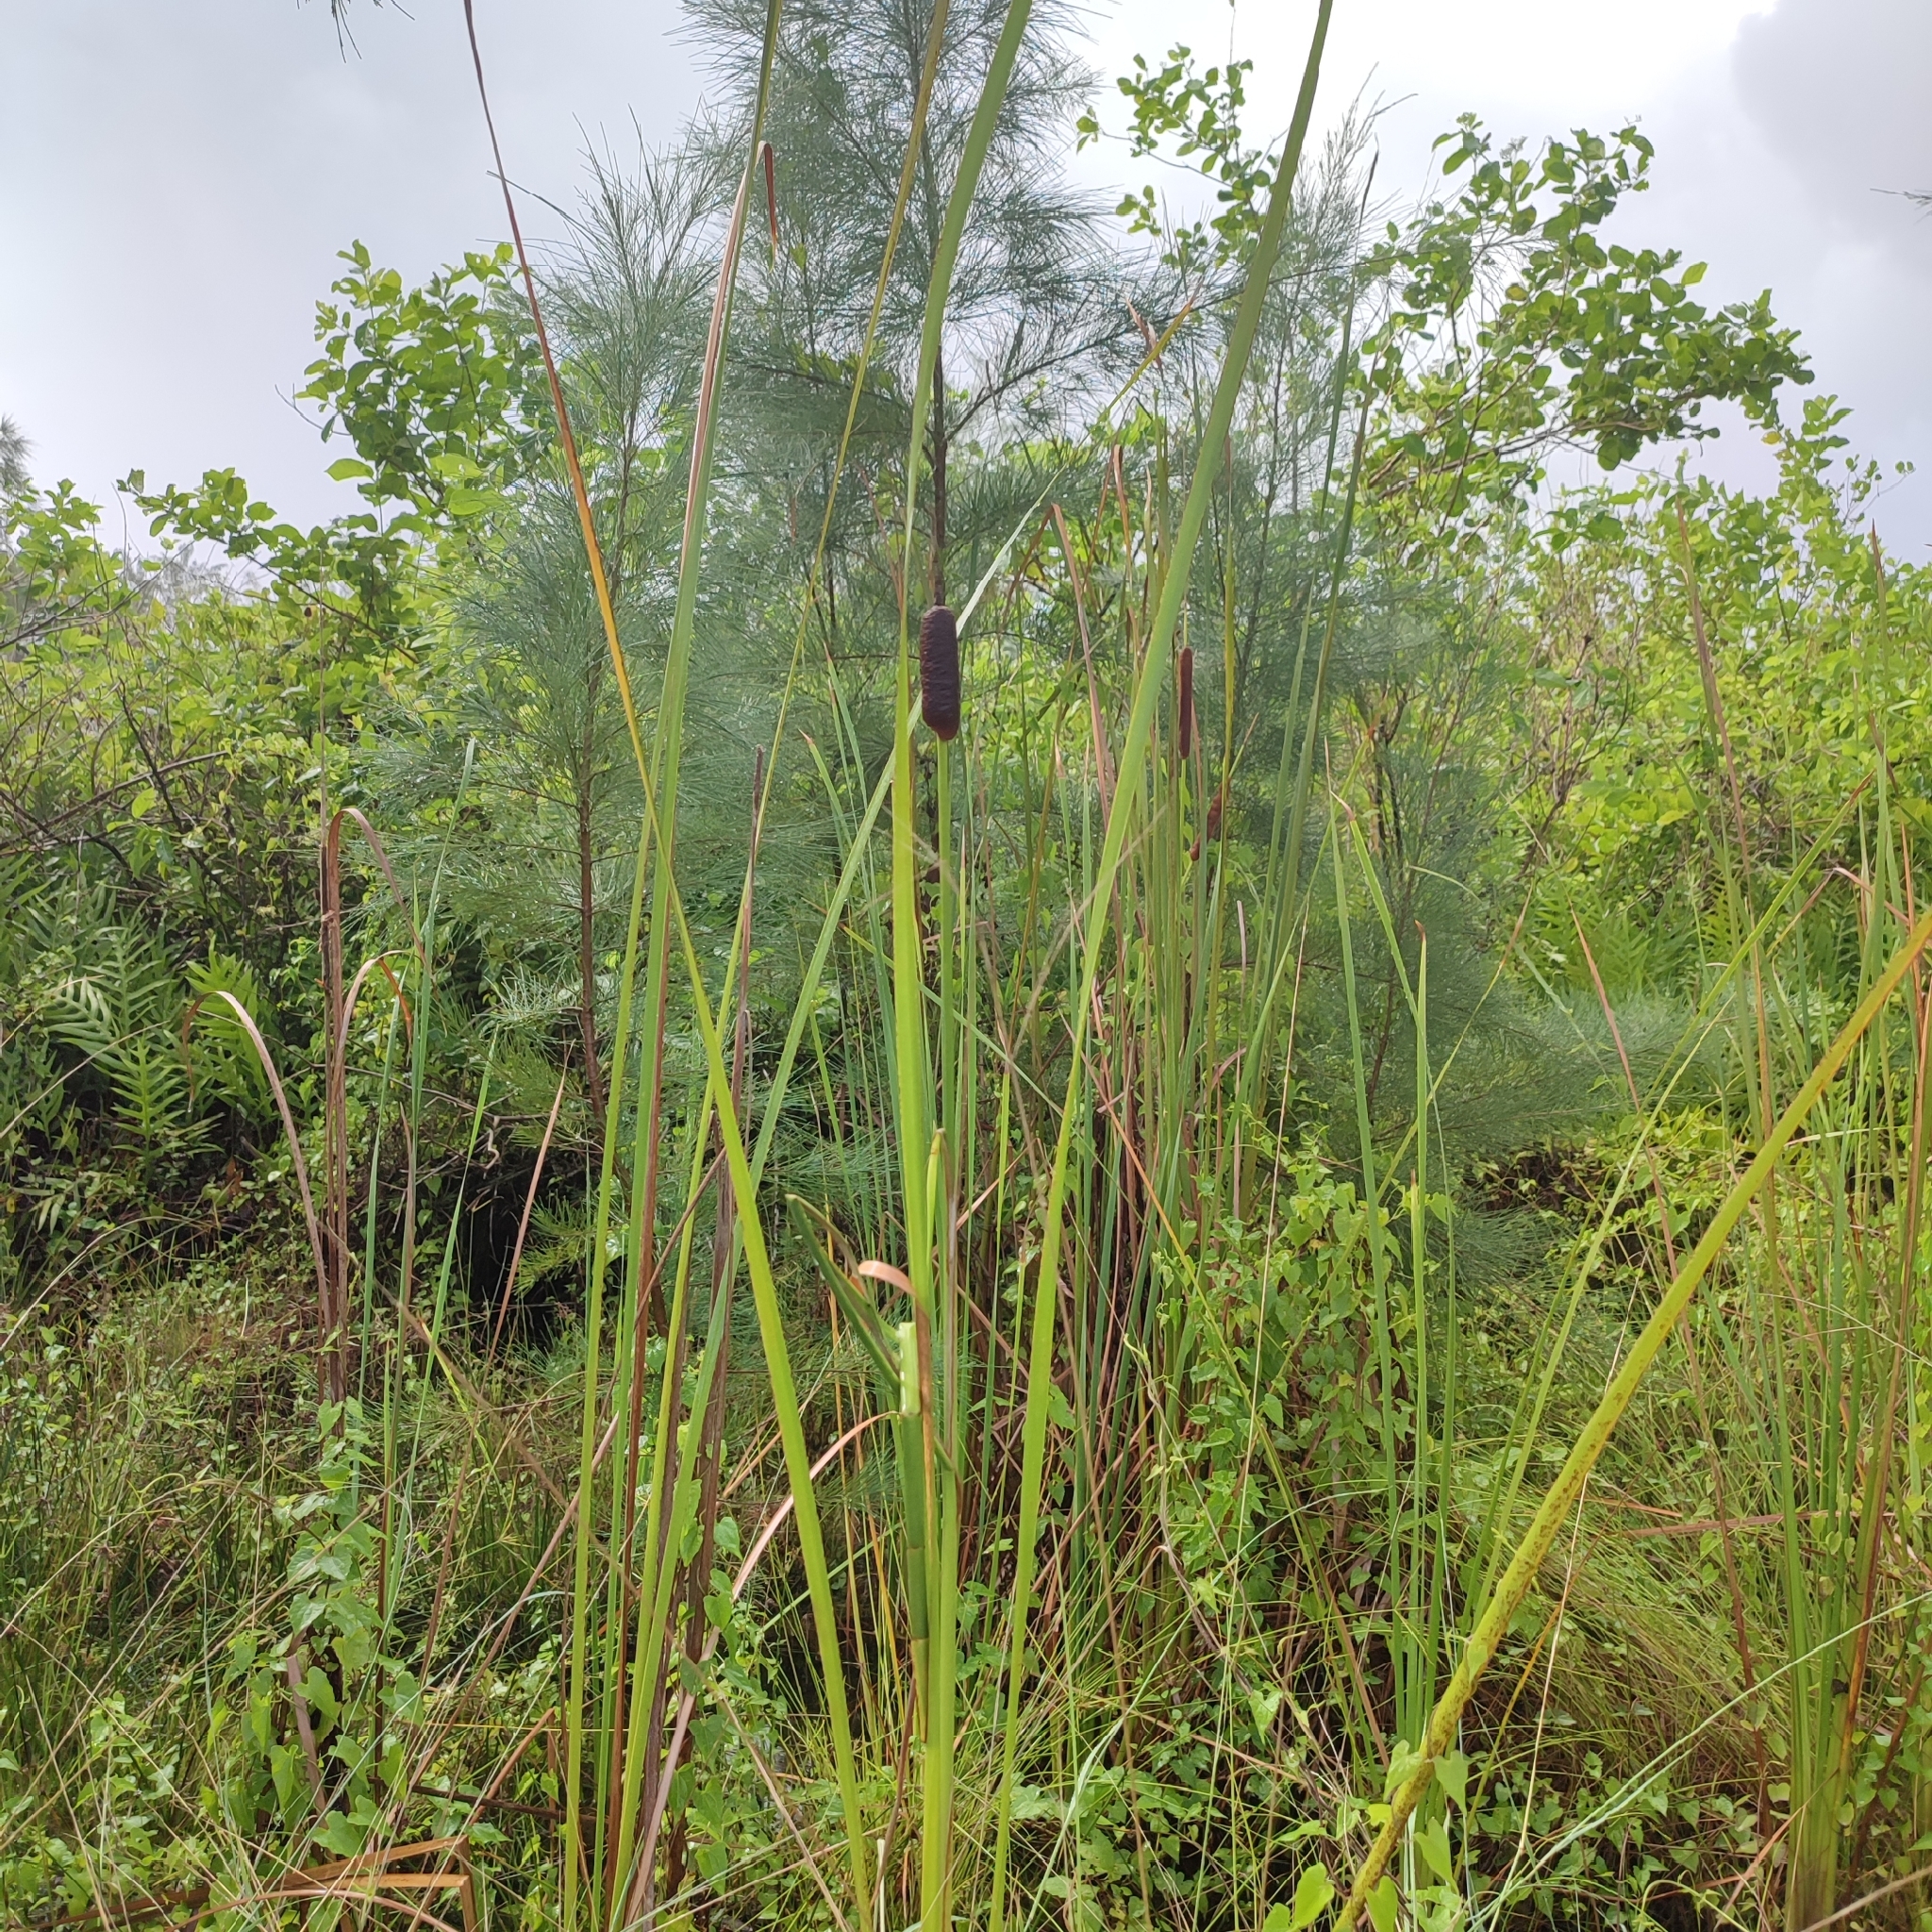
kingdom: Plantae
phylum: Tracheophyta
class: Liliopsida
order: Poales
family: Typhaceae
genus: Typha
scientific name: Typha domingensis
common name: Southern cattail
